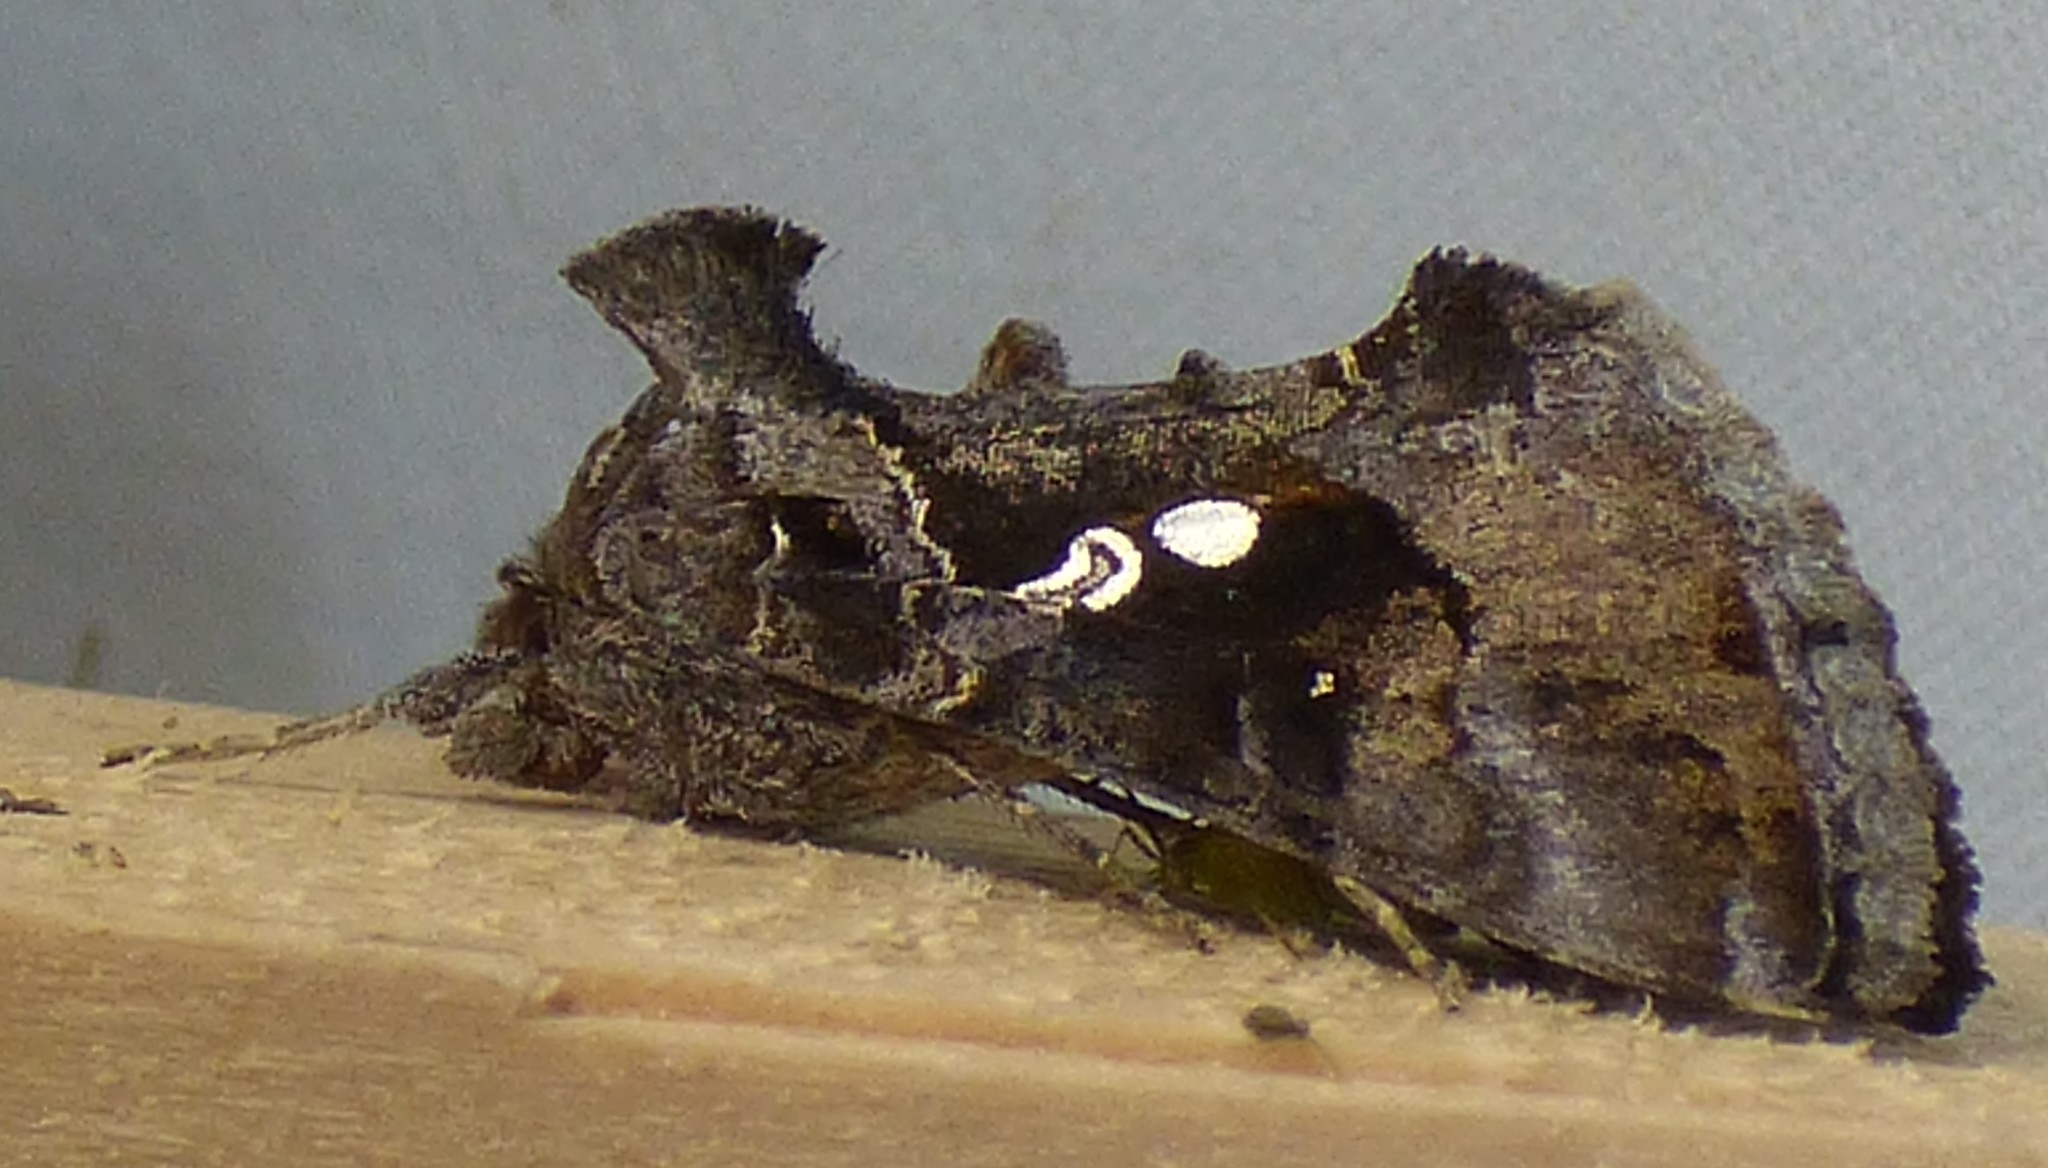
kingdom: Animalia
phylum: Arthropoda
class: Insecta
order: Lepidoptera
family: Noctuidae
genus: Chrysodeixis
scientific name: Chrysodeixis includens
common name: Cutworm moth
